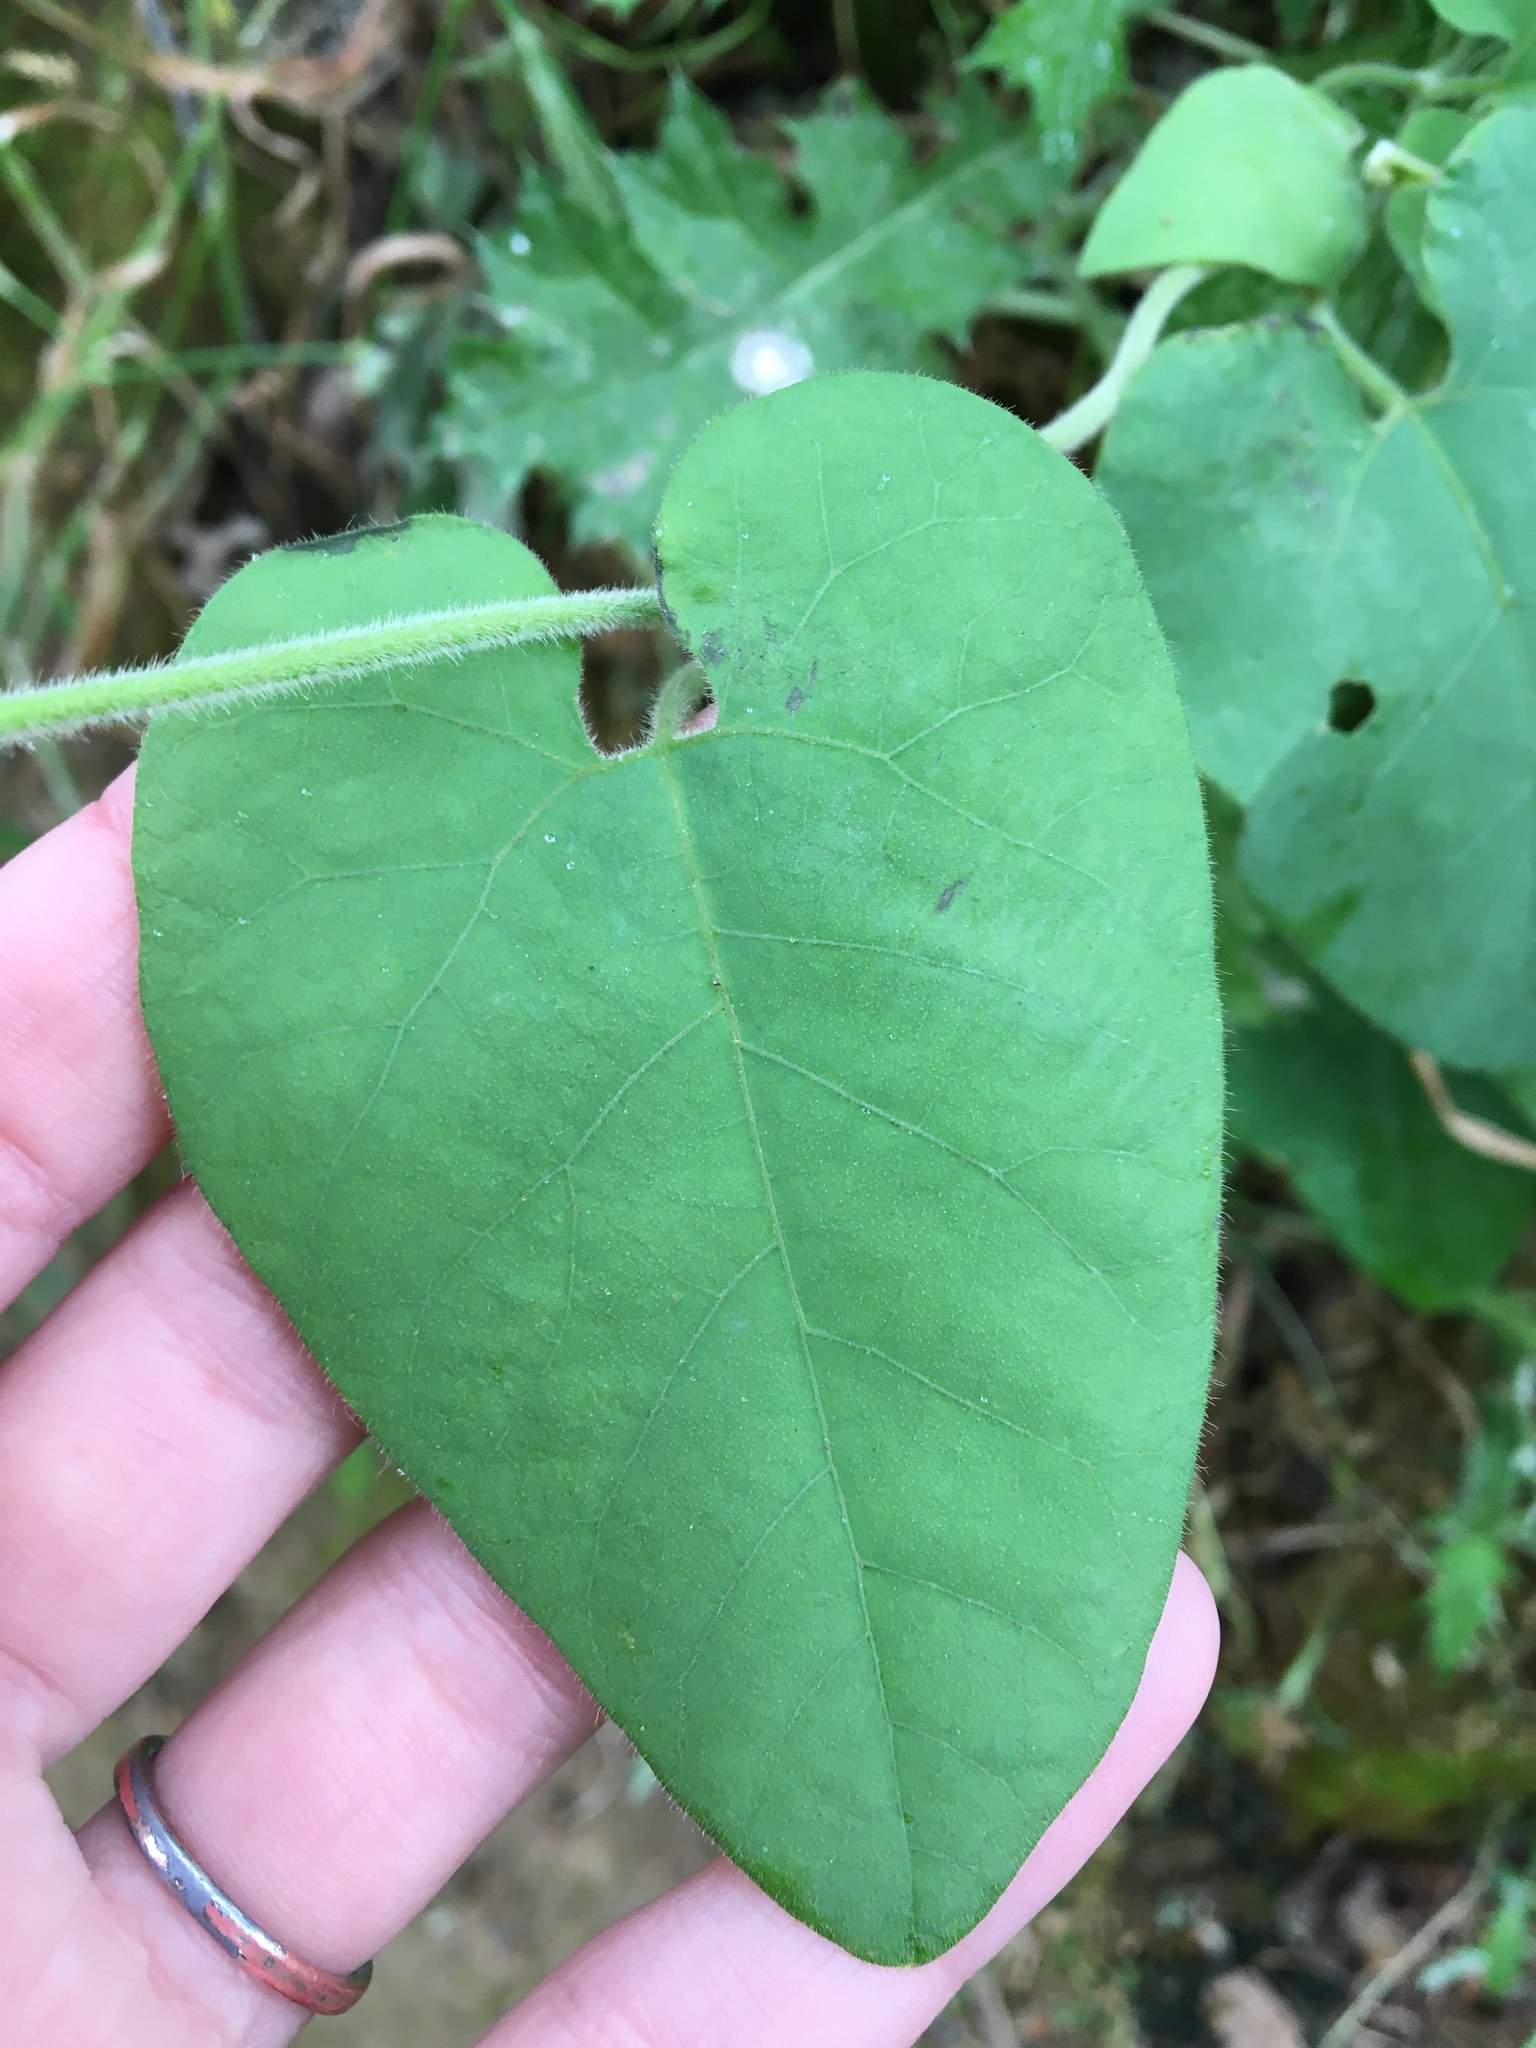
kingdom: Plantae
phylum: Tracheophyta
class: Magnoliopsida
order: Piperales
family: Aristolochiaceae
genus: Isotrema
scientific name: Isotrema californicum
